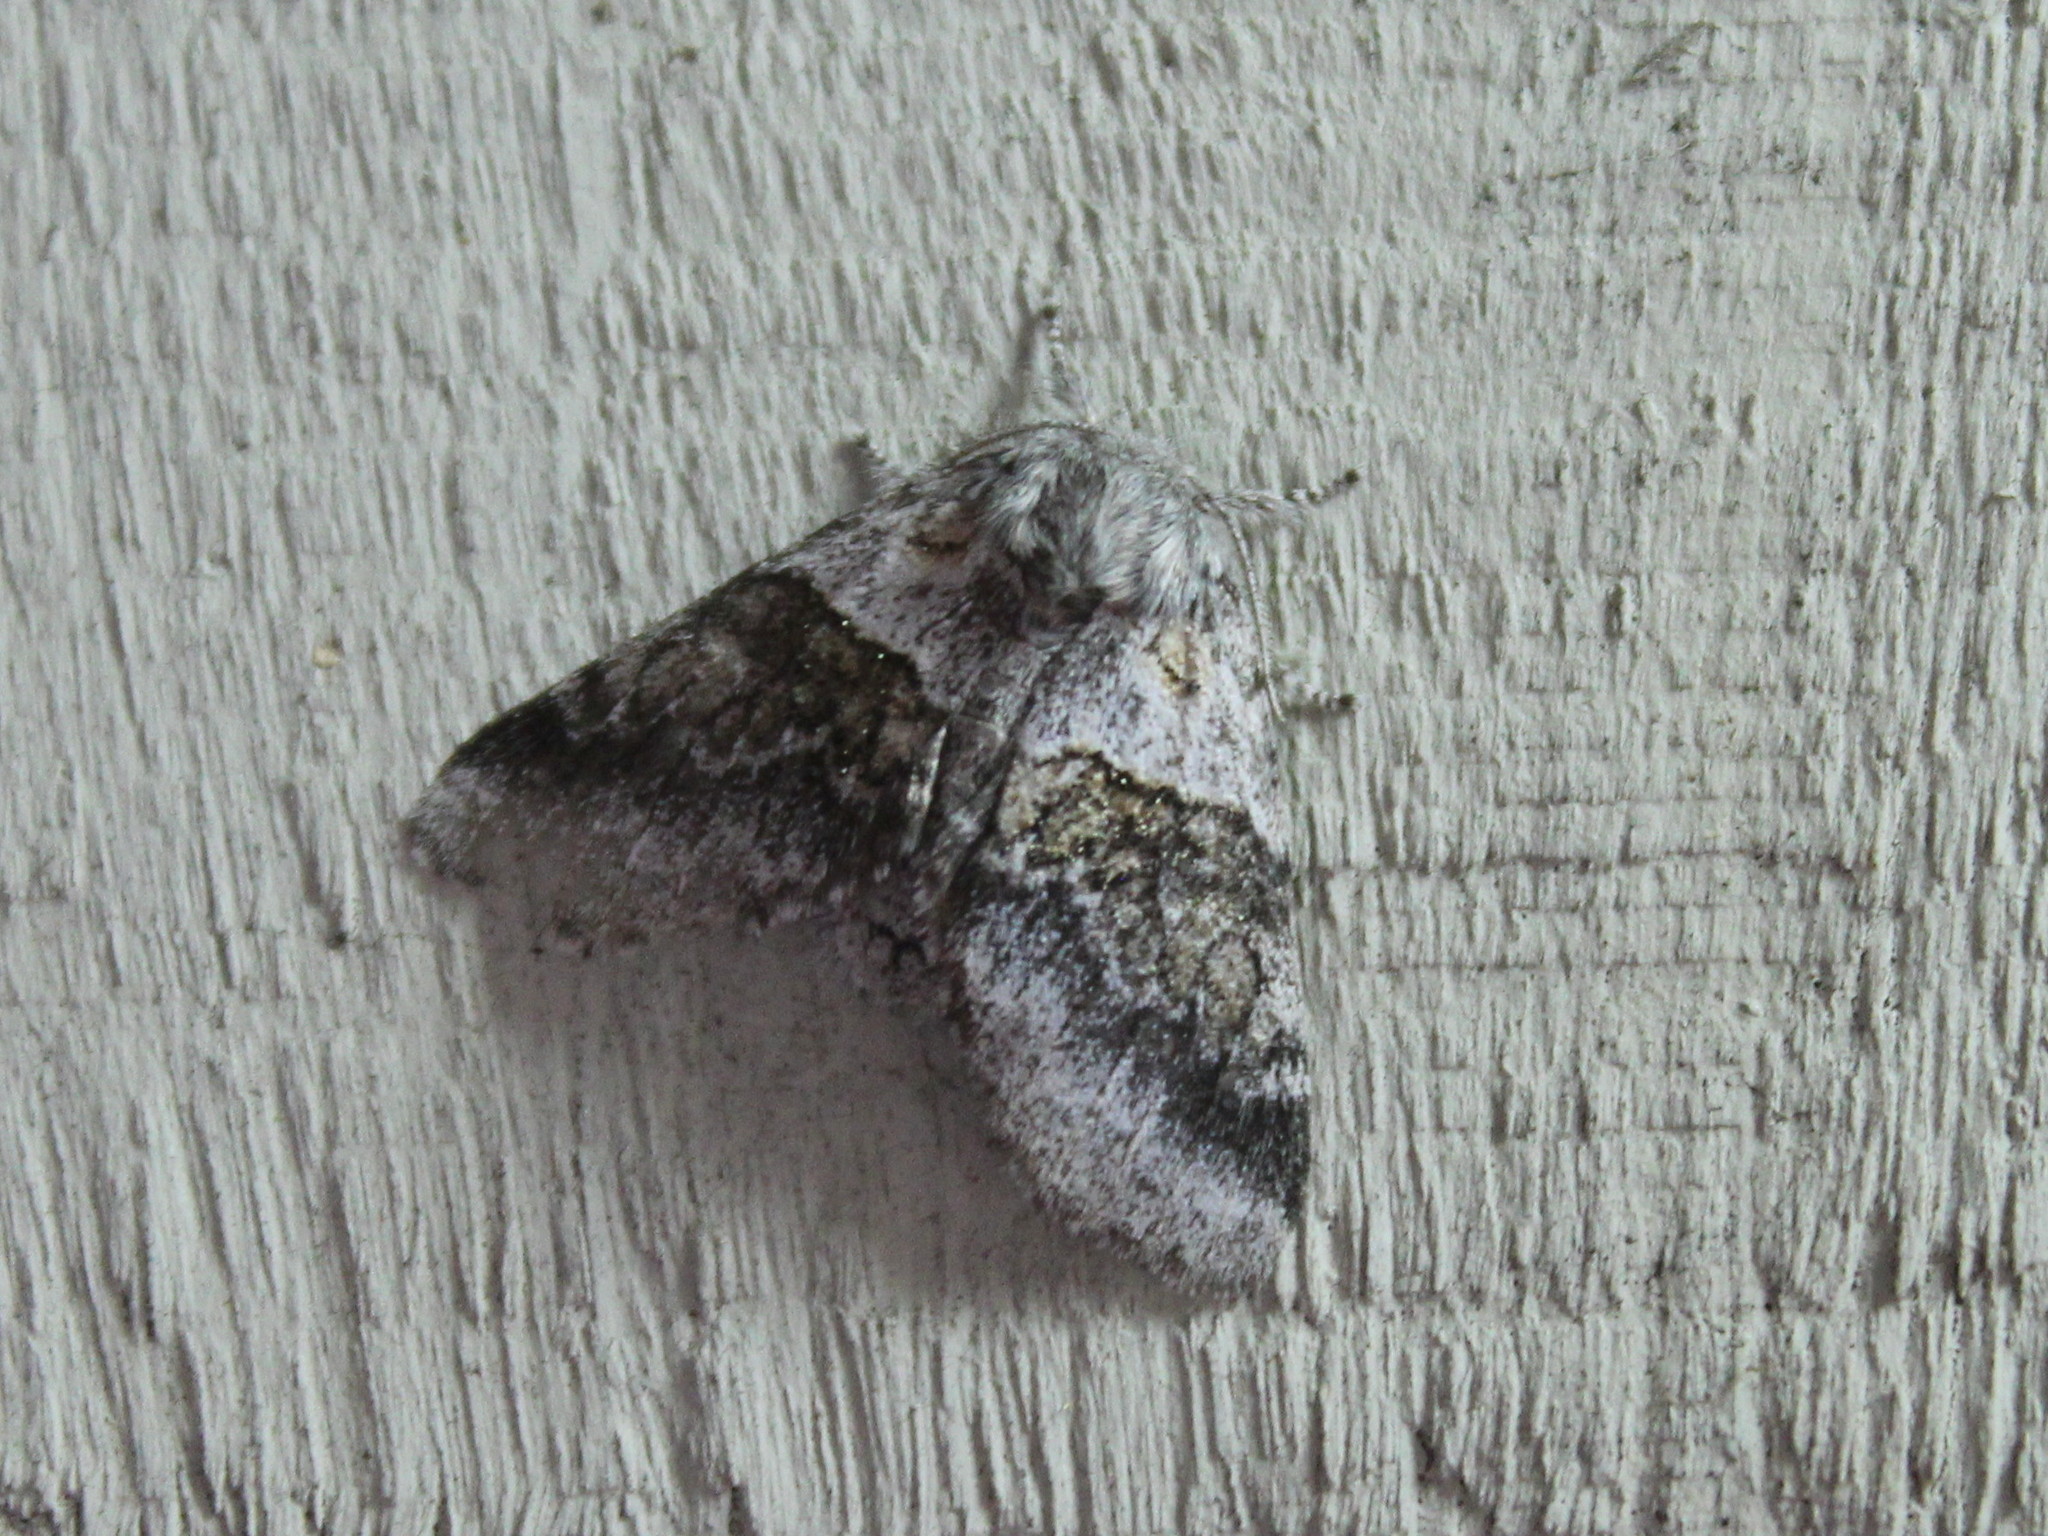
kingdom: Animalia
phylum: Arthropoda
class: Insecta
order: Lepidoptera
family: Notodontidae
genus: Gluphisia
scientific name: Gluphisia septentrionis
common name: Common gluphisia
